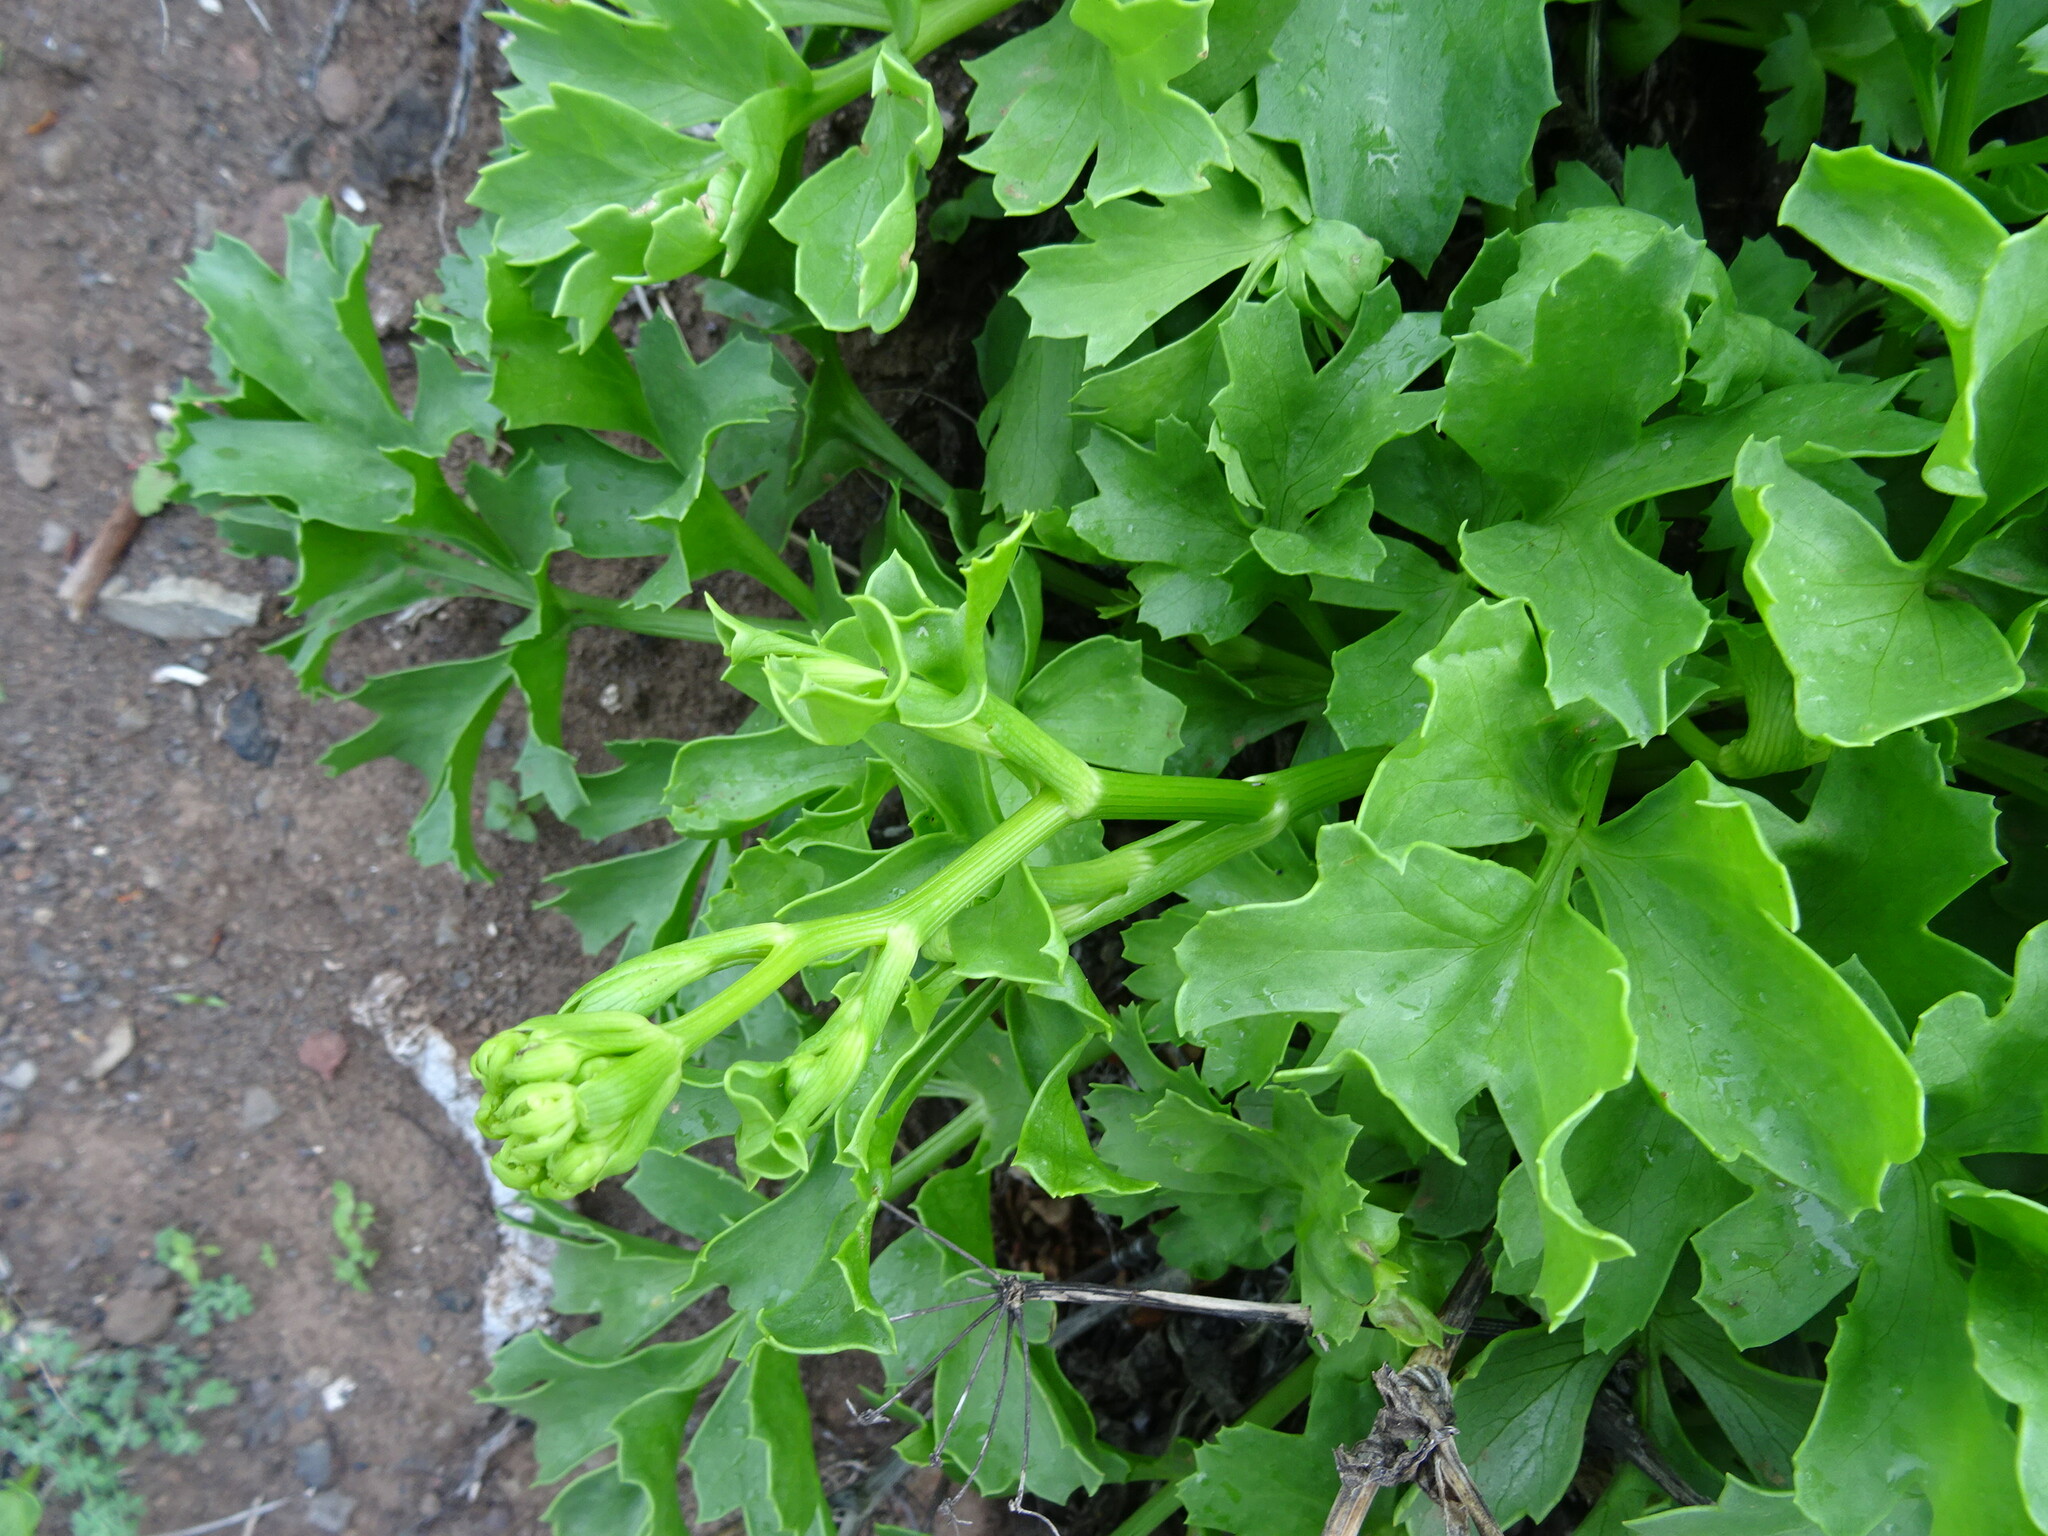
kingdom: Plantae
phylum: Tracheophyta
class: Magnoliopsida
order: Apiales
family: Apiaceae
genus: Astydamia
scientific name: Astydamia latifolia
